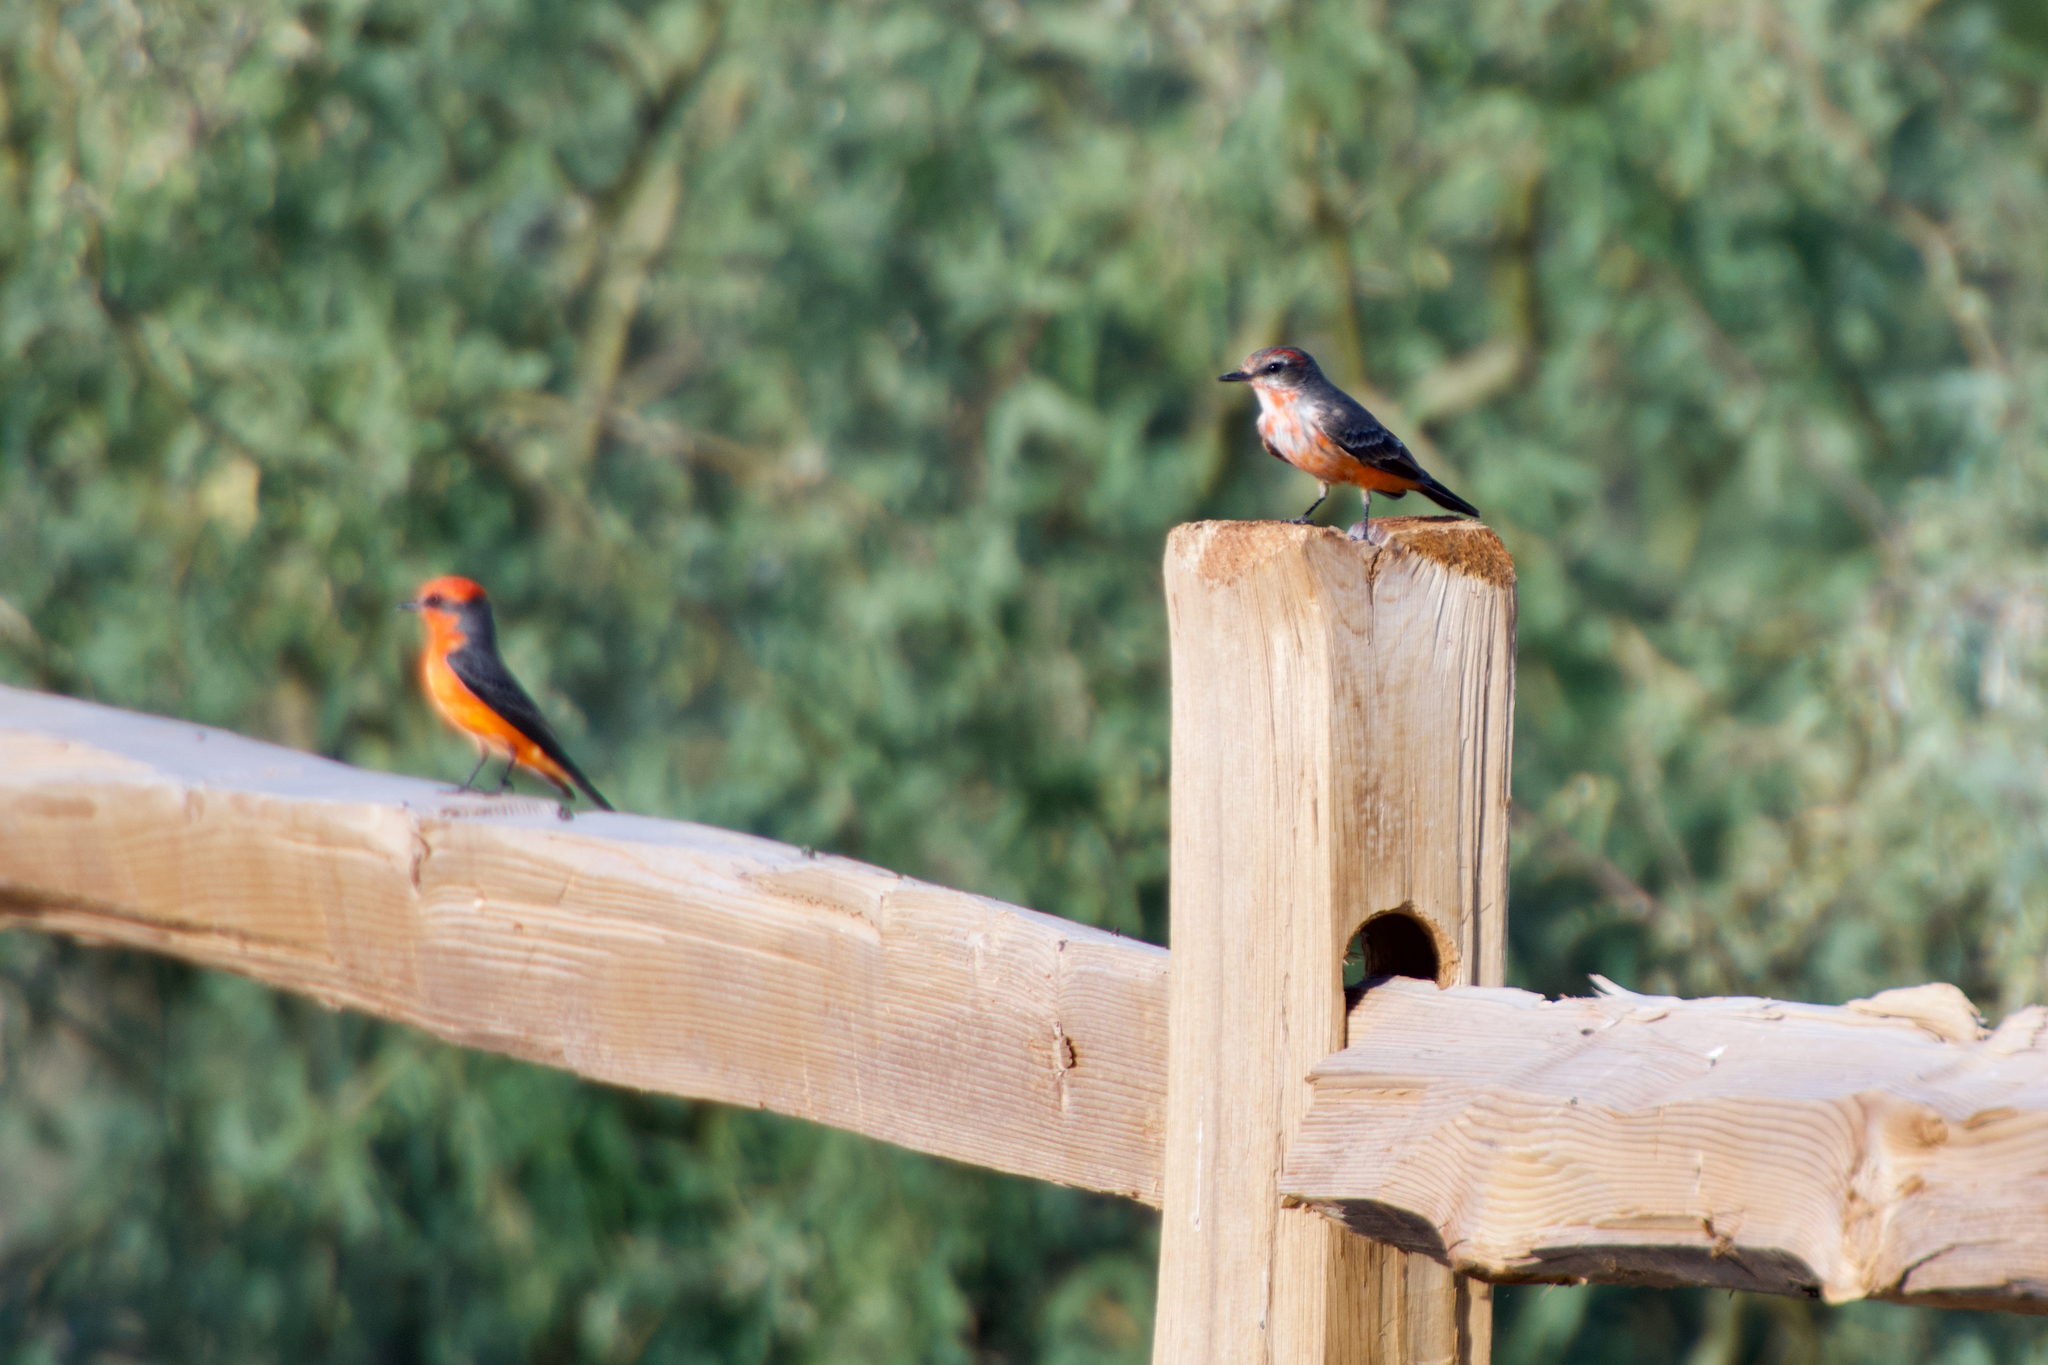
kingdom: Animalia
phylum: Chordata
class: Aves
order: Passeriformes
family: Tyrannidae
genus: Pyrocephalus
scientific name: Pyrocephalus rubinus
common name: Vermilion flycatcher
